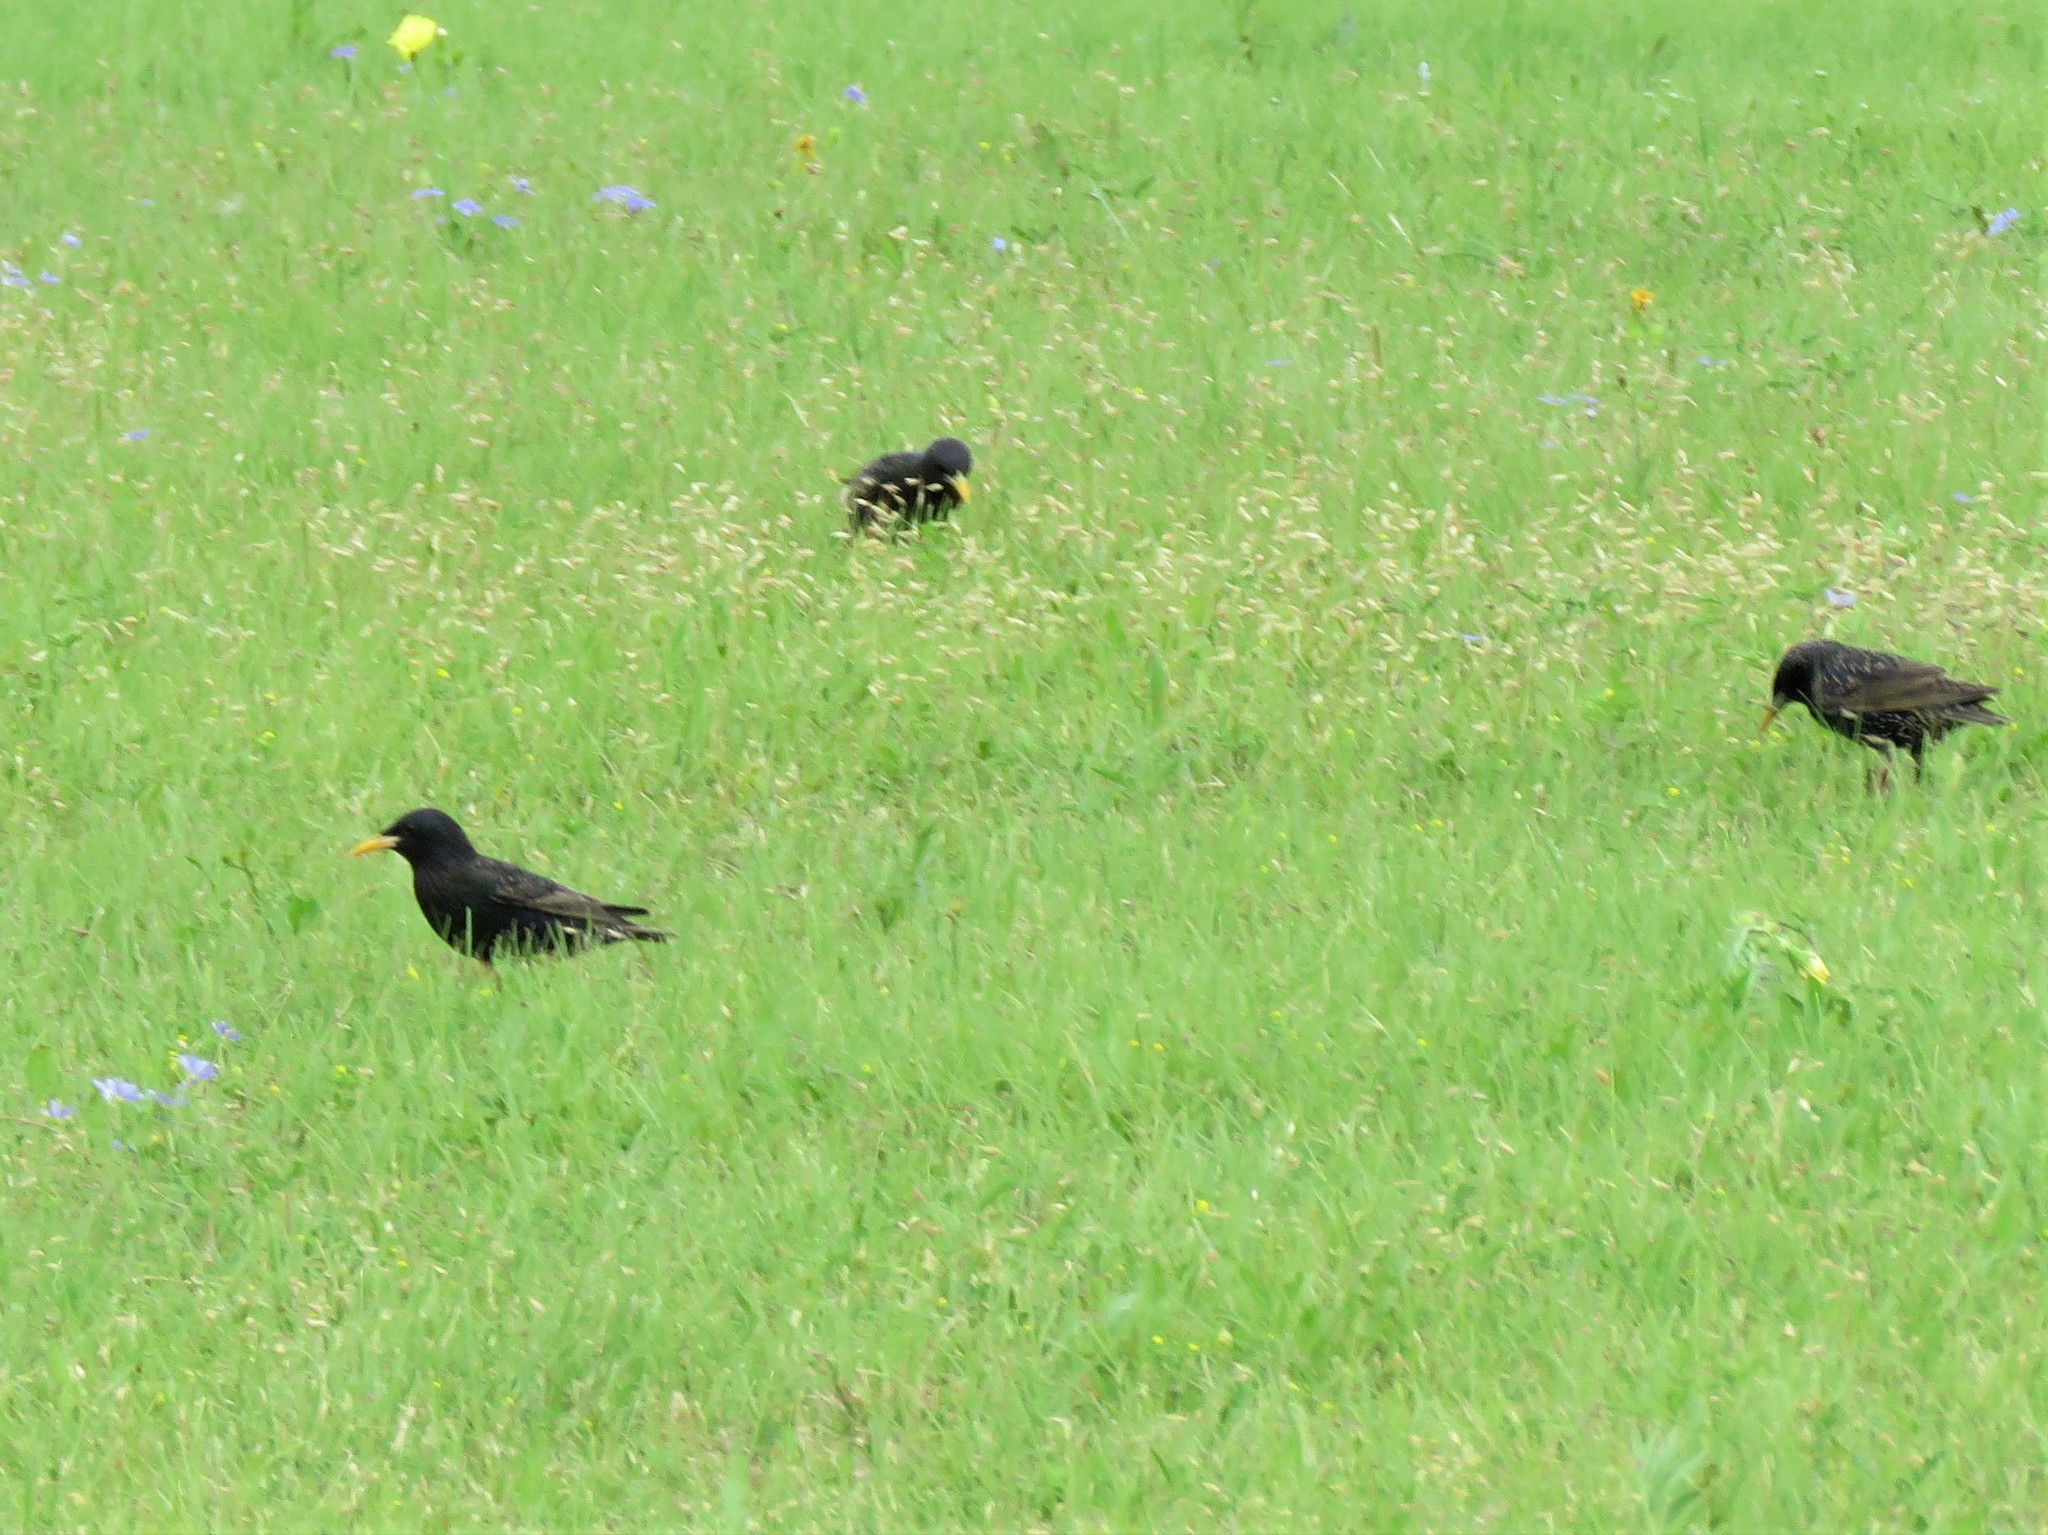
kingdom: Animalia
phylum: Chordata
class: Aves
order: Passeriformes
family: Sturnidae
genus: Sturnus
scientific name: Sturnus vulgaris
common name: Common starling
